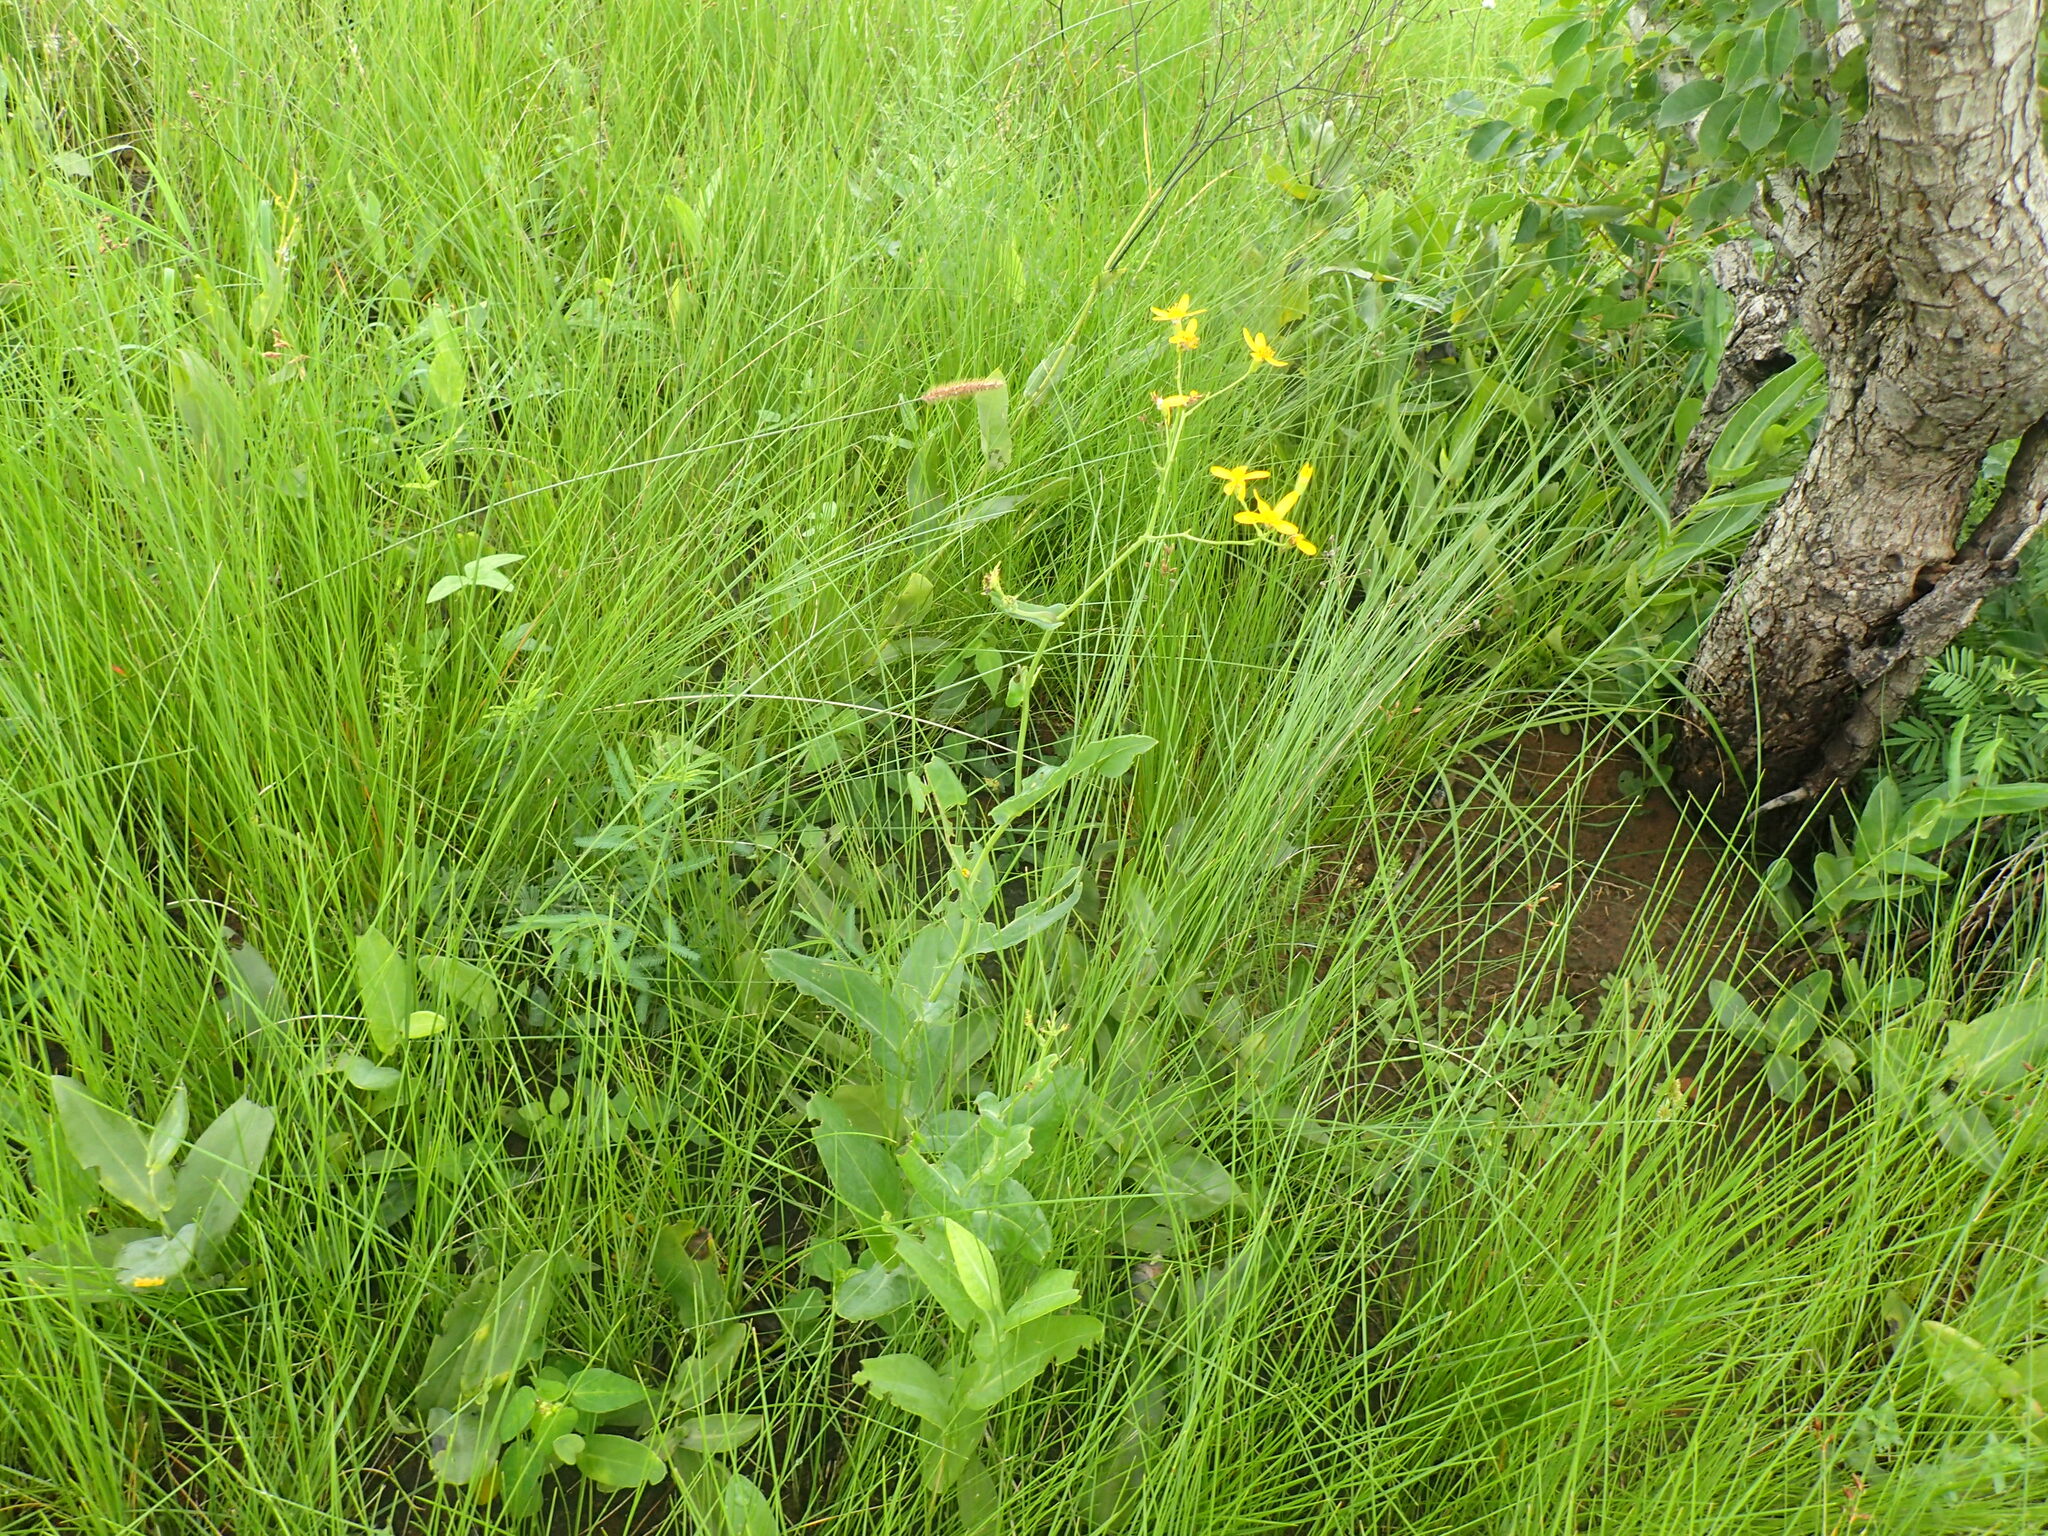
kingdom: Plantae
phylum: Tracheophyta
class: Magnoliopsida
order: Asterales
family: Asteraceae
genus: Senecio
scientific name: Senecio adnatus
